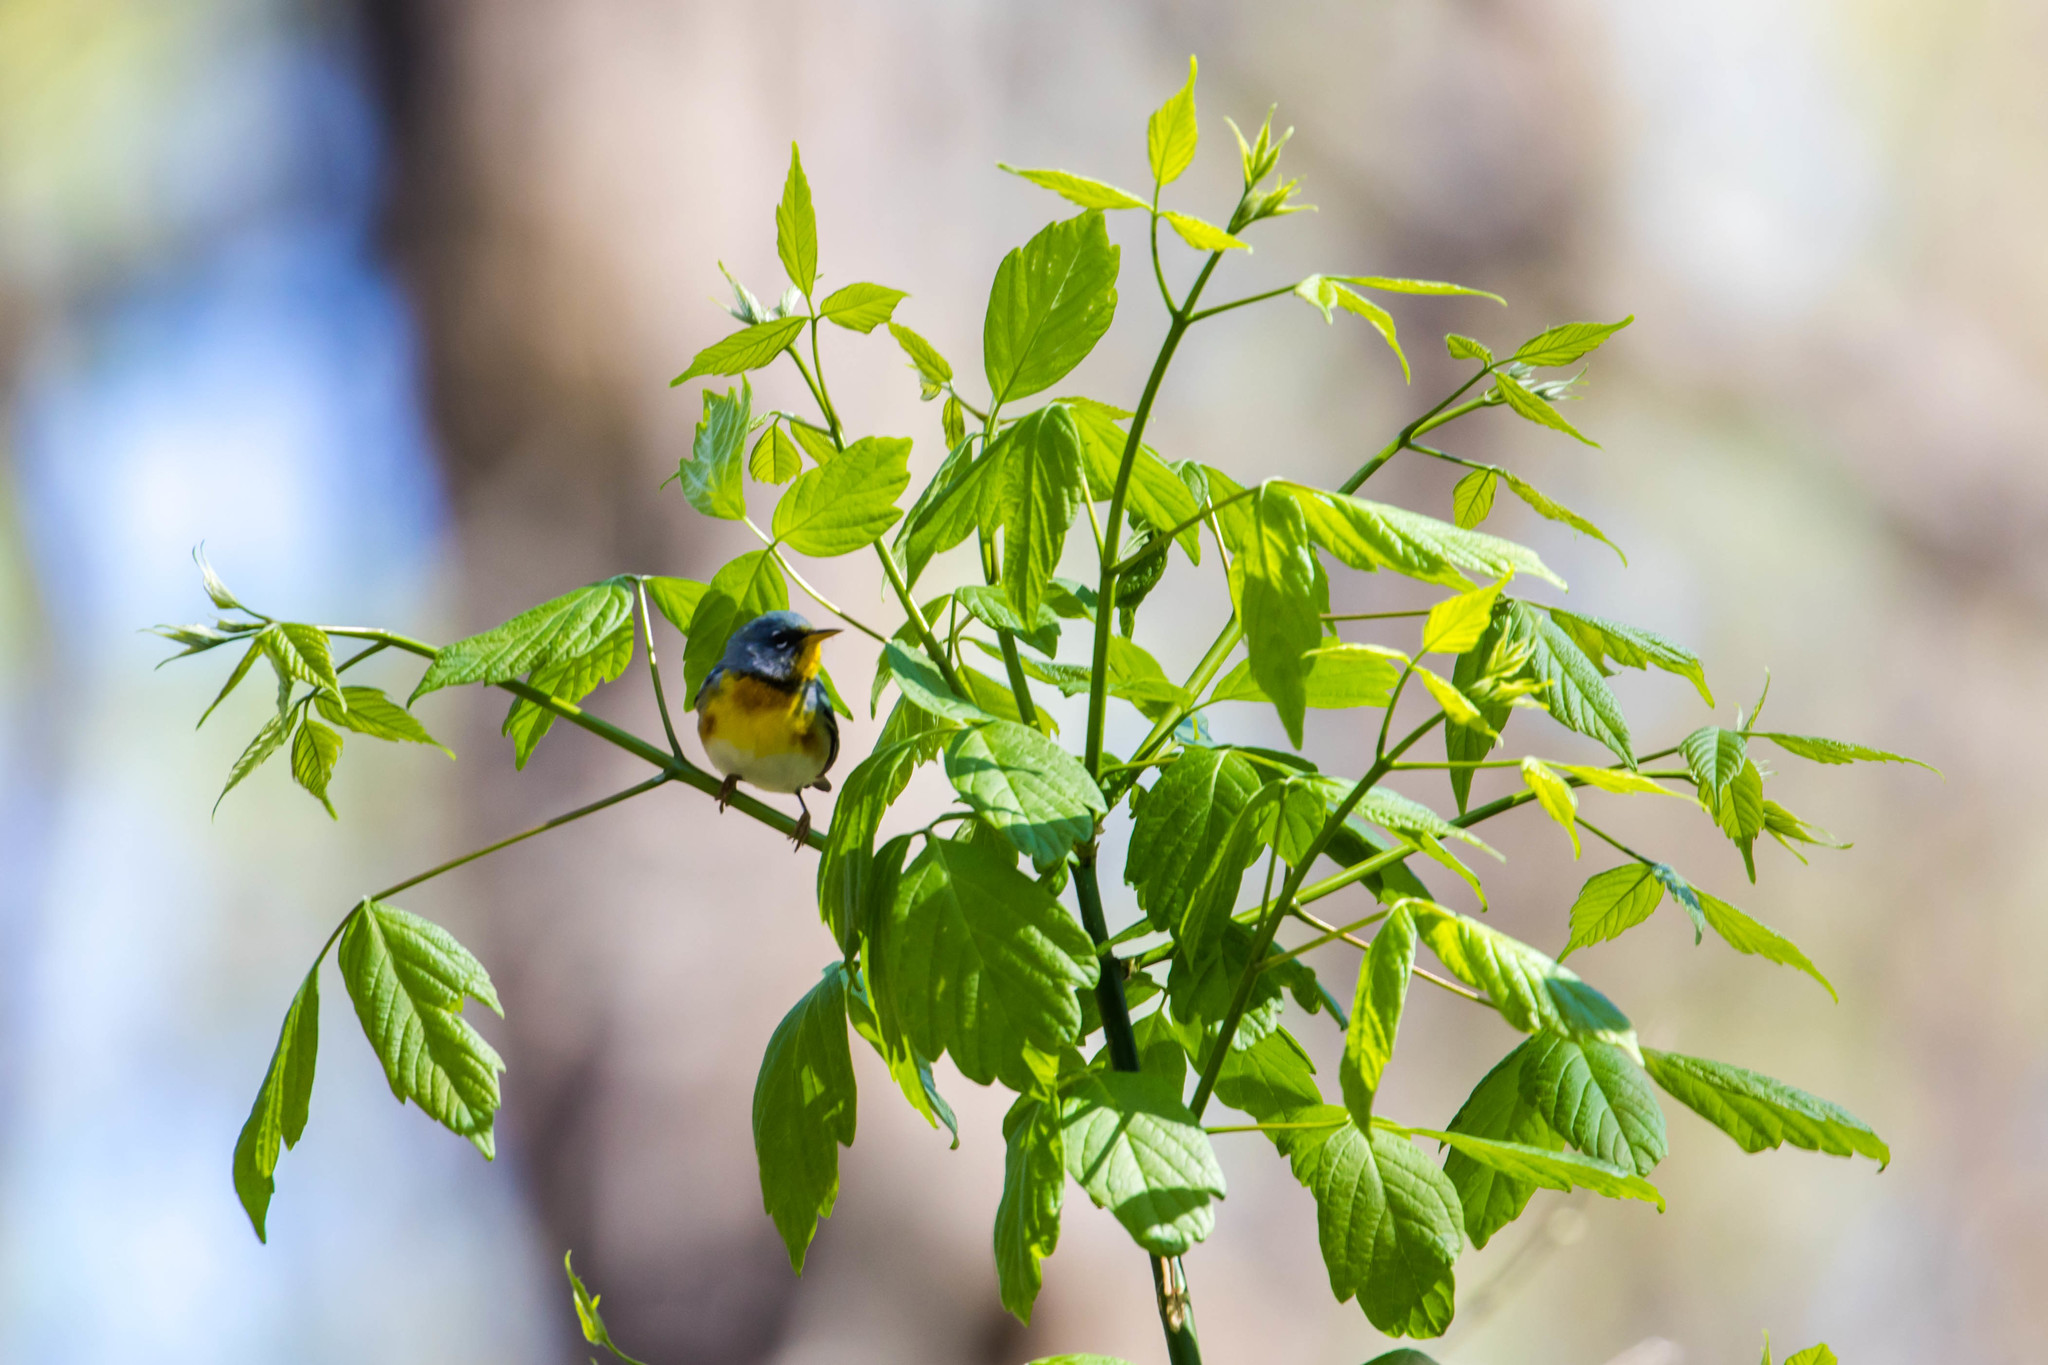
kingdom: Animalia
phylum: Chordata
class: Aves
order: Passeriformes
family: Parulidae
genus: Setophaga
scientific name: Setophaga americana
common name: Northern parula
